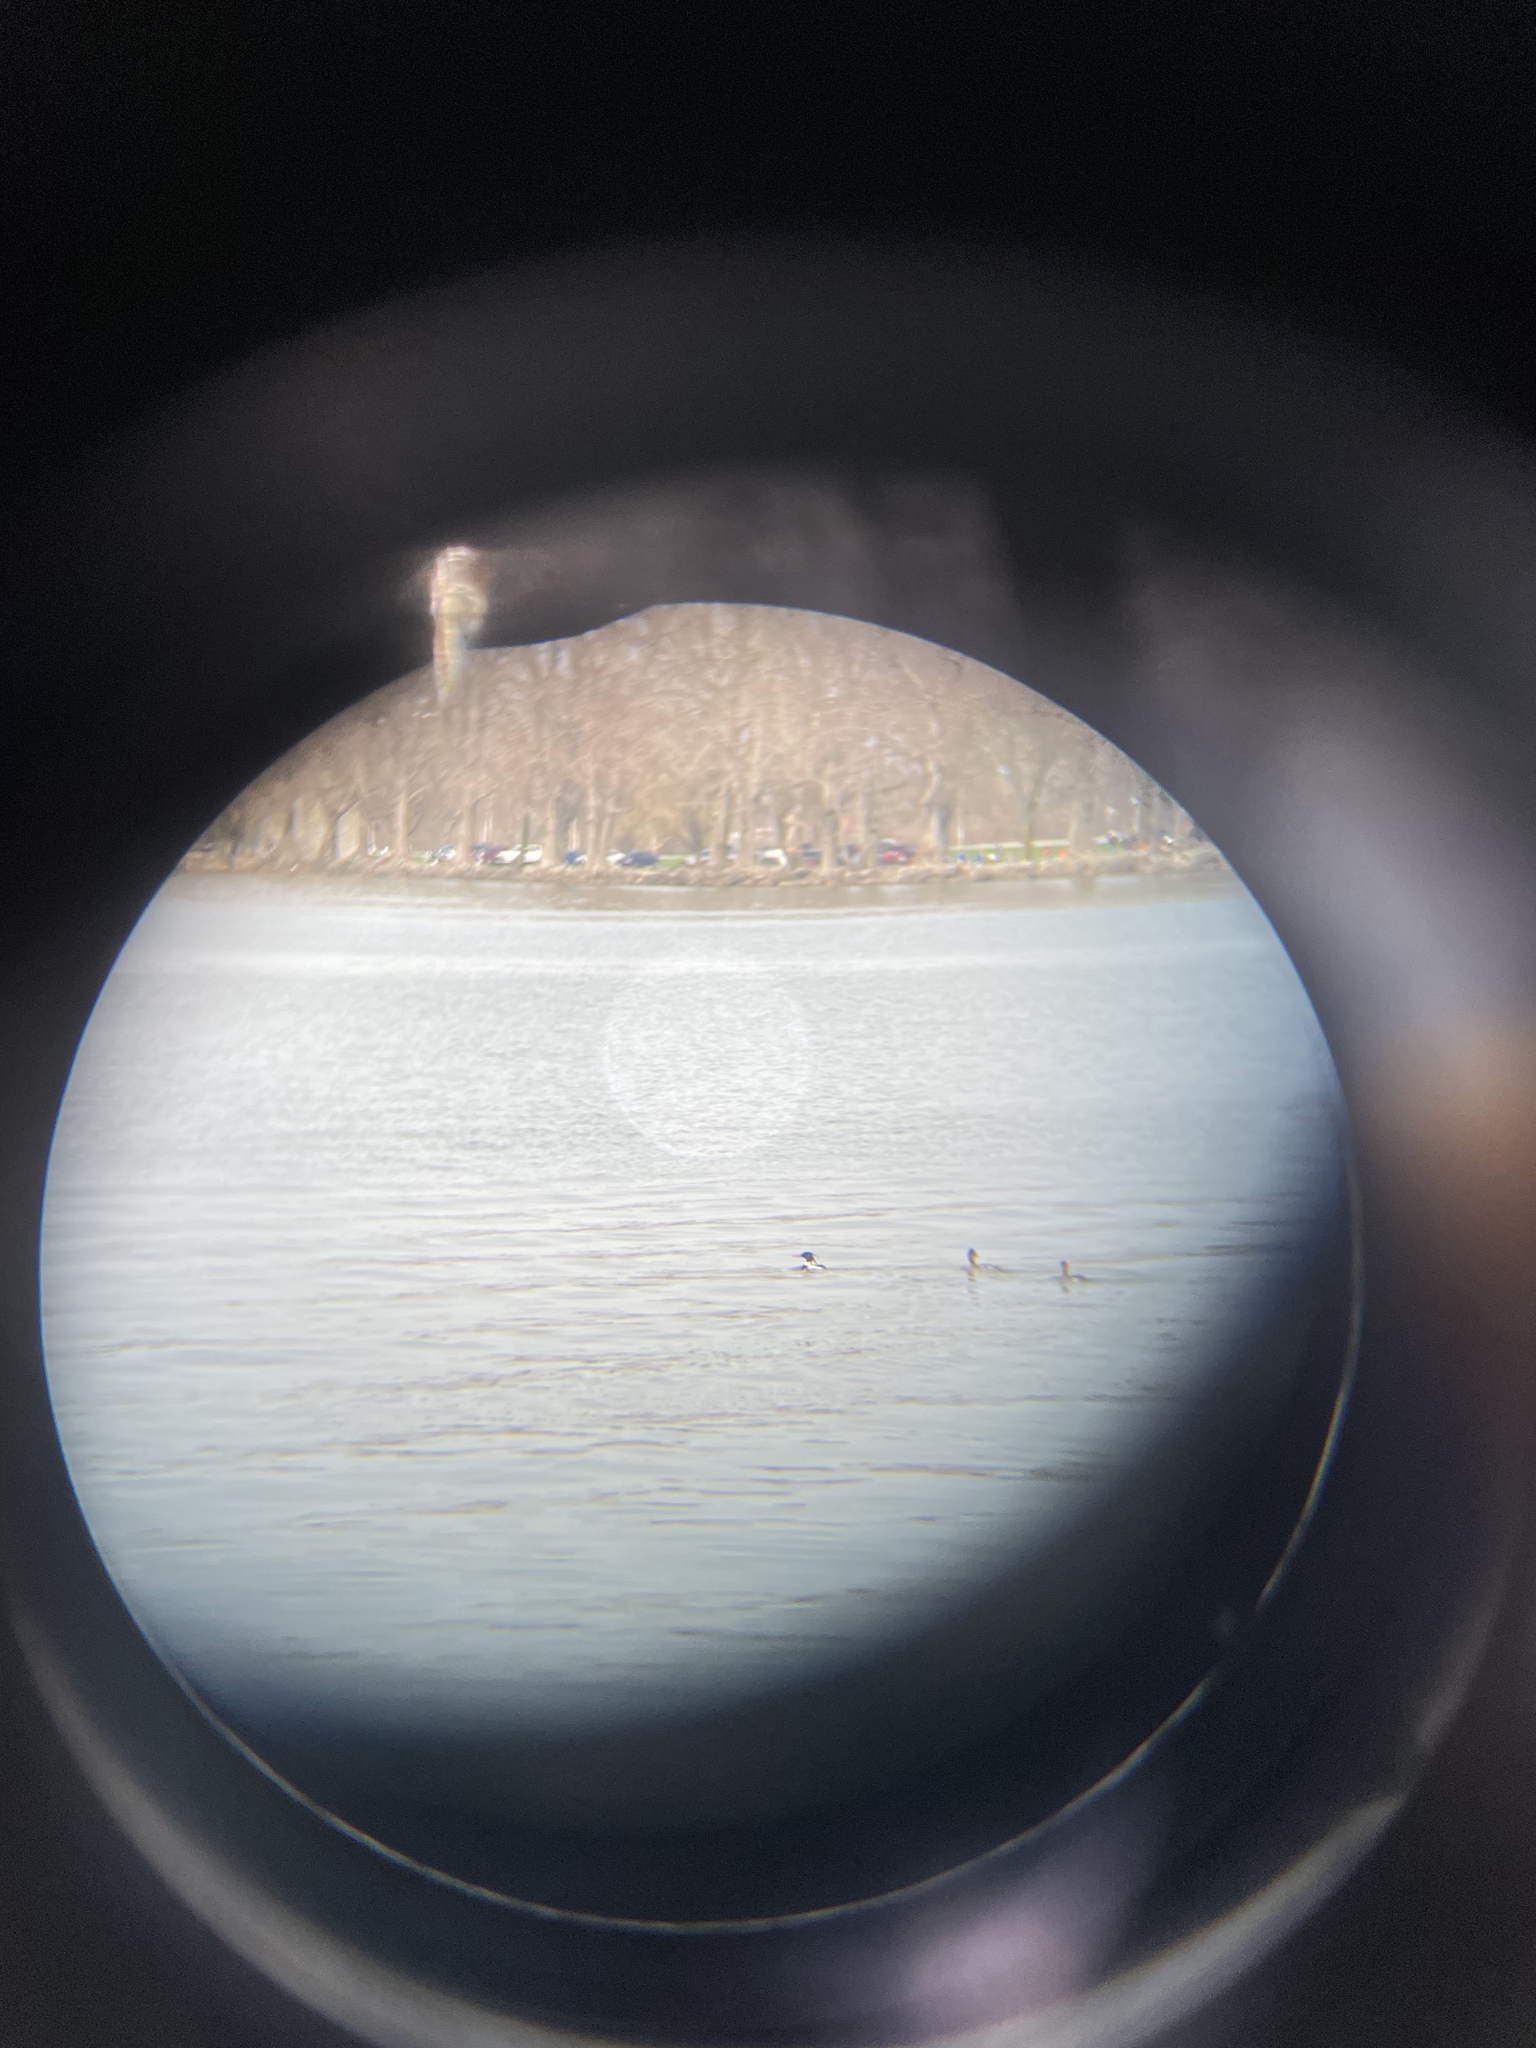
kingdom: Animalia
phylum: Chordata
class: Aves
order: Anseriformes
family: Anatidae
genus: Mergus
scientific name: Mergus serrator
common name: Red-breasted merganser
